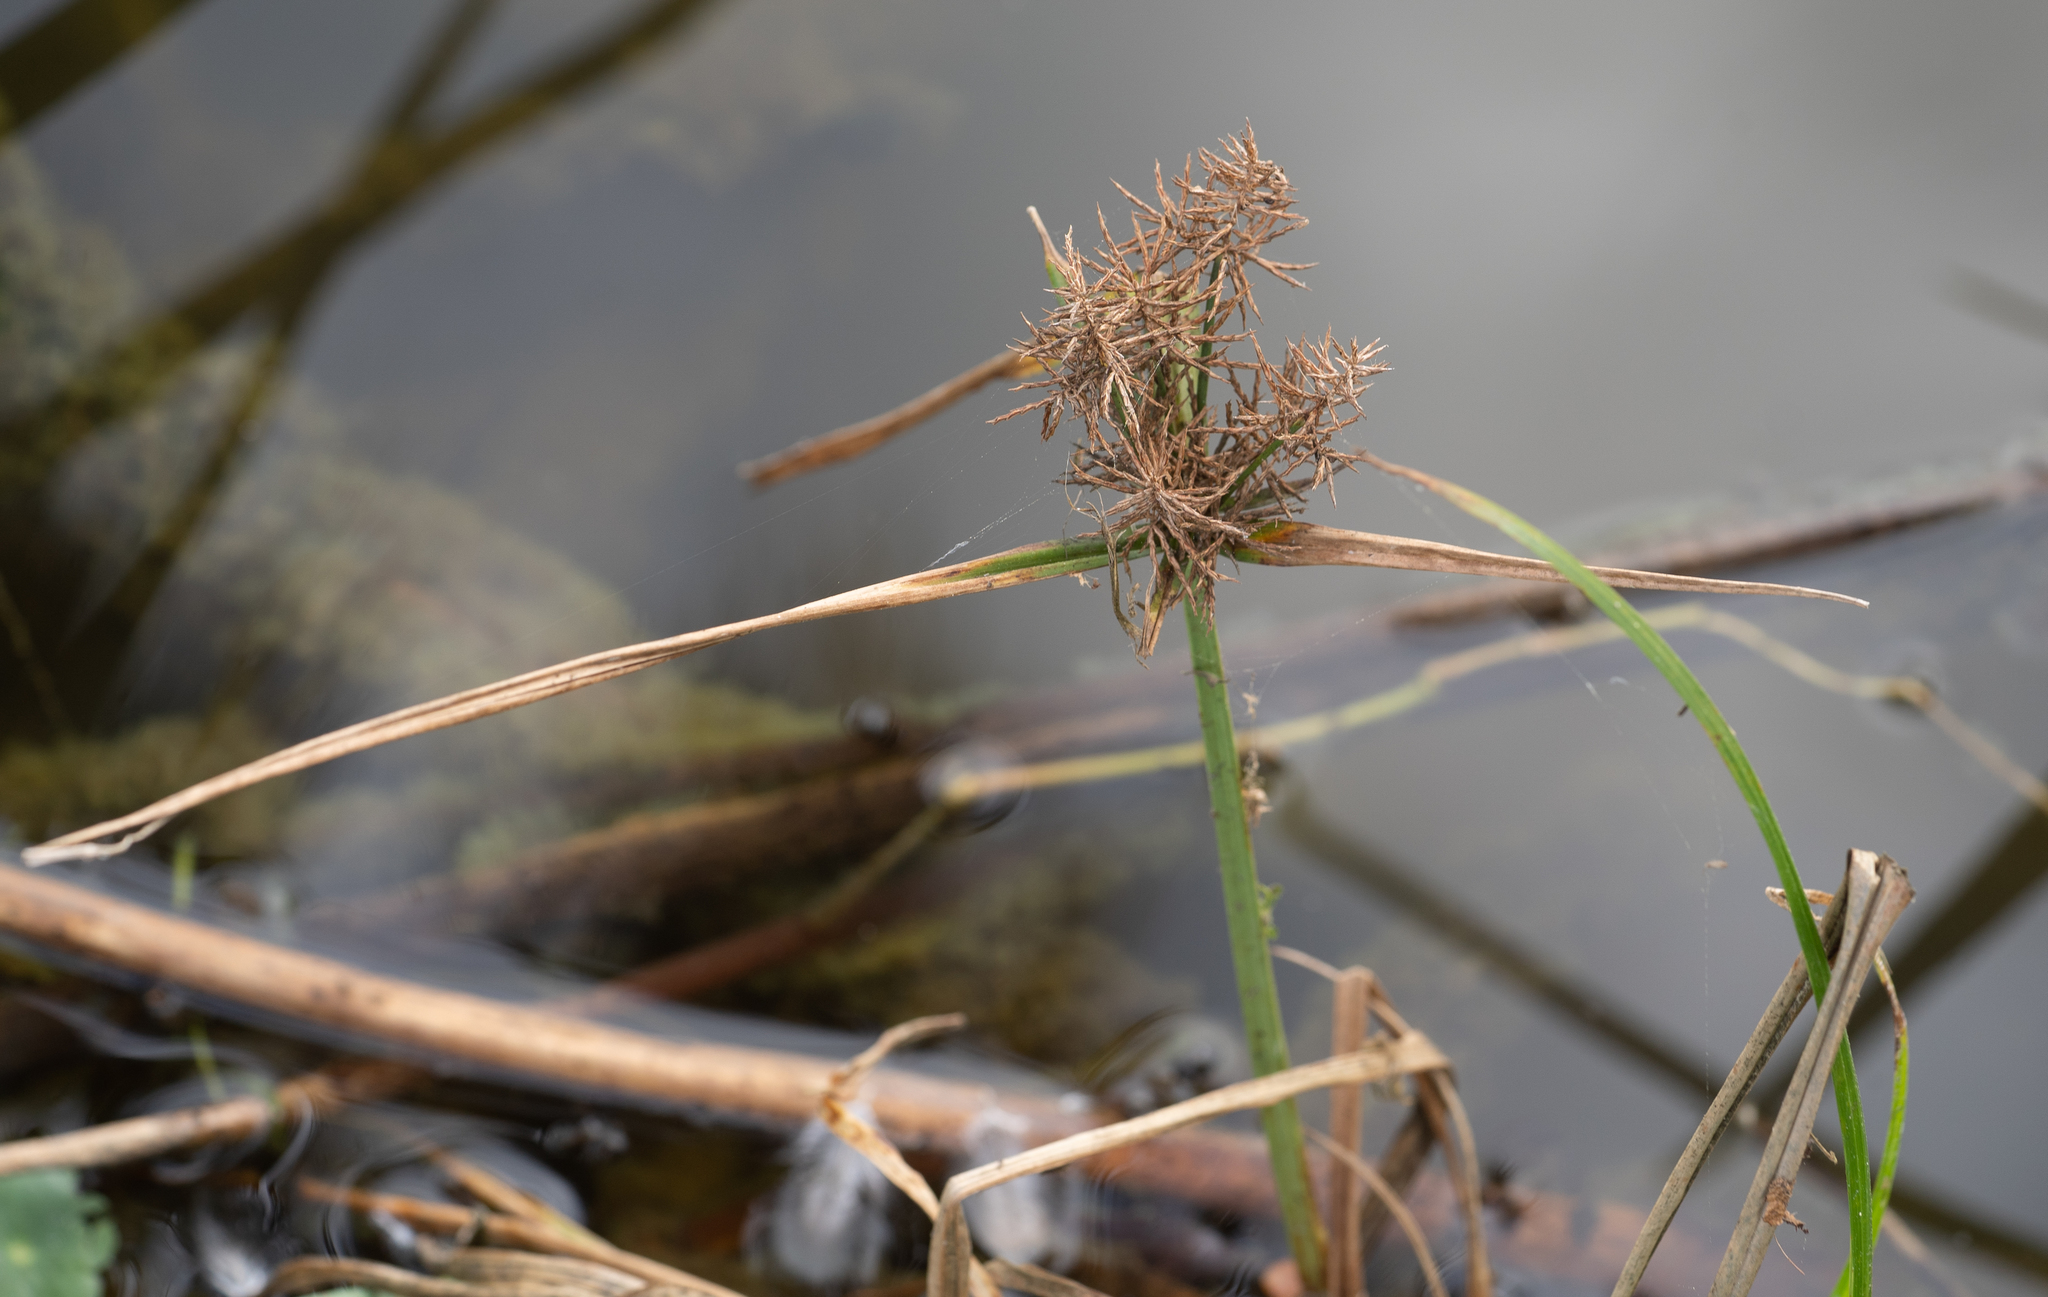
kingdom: Plantae
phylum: Tracheophyta
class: Liliopsida
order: Poales
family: Cyperaceae
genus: Cyperus
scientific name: Cyperus odoratus
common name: Fragrant flatsedge
